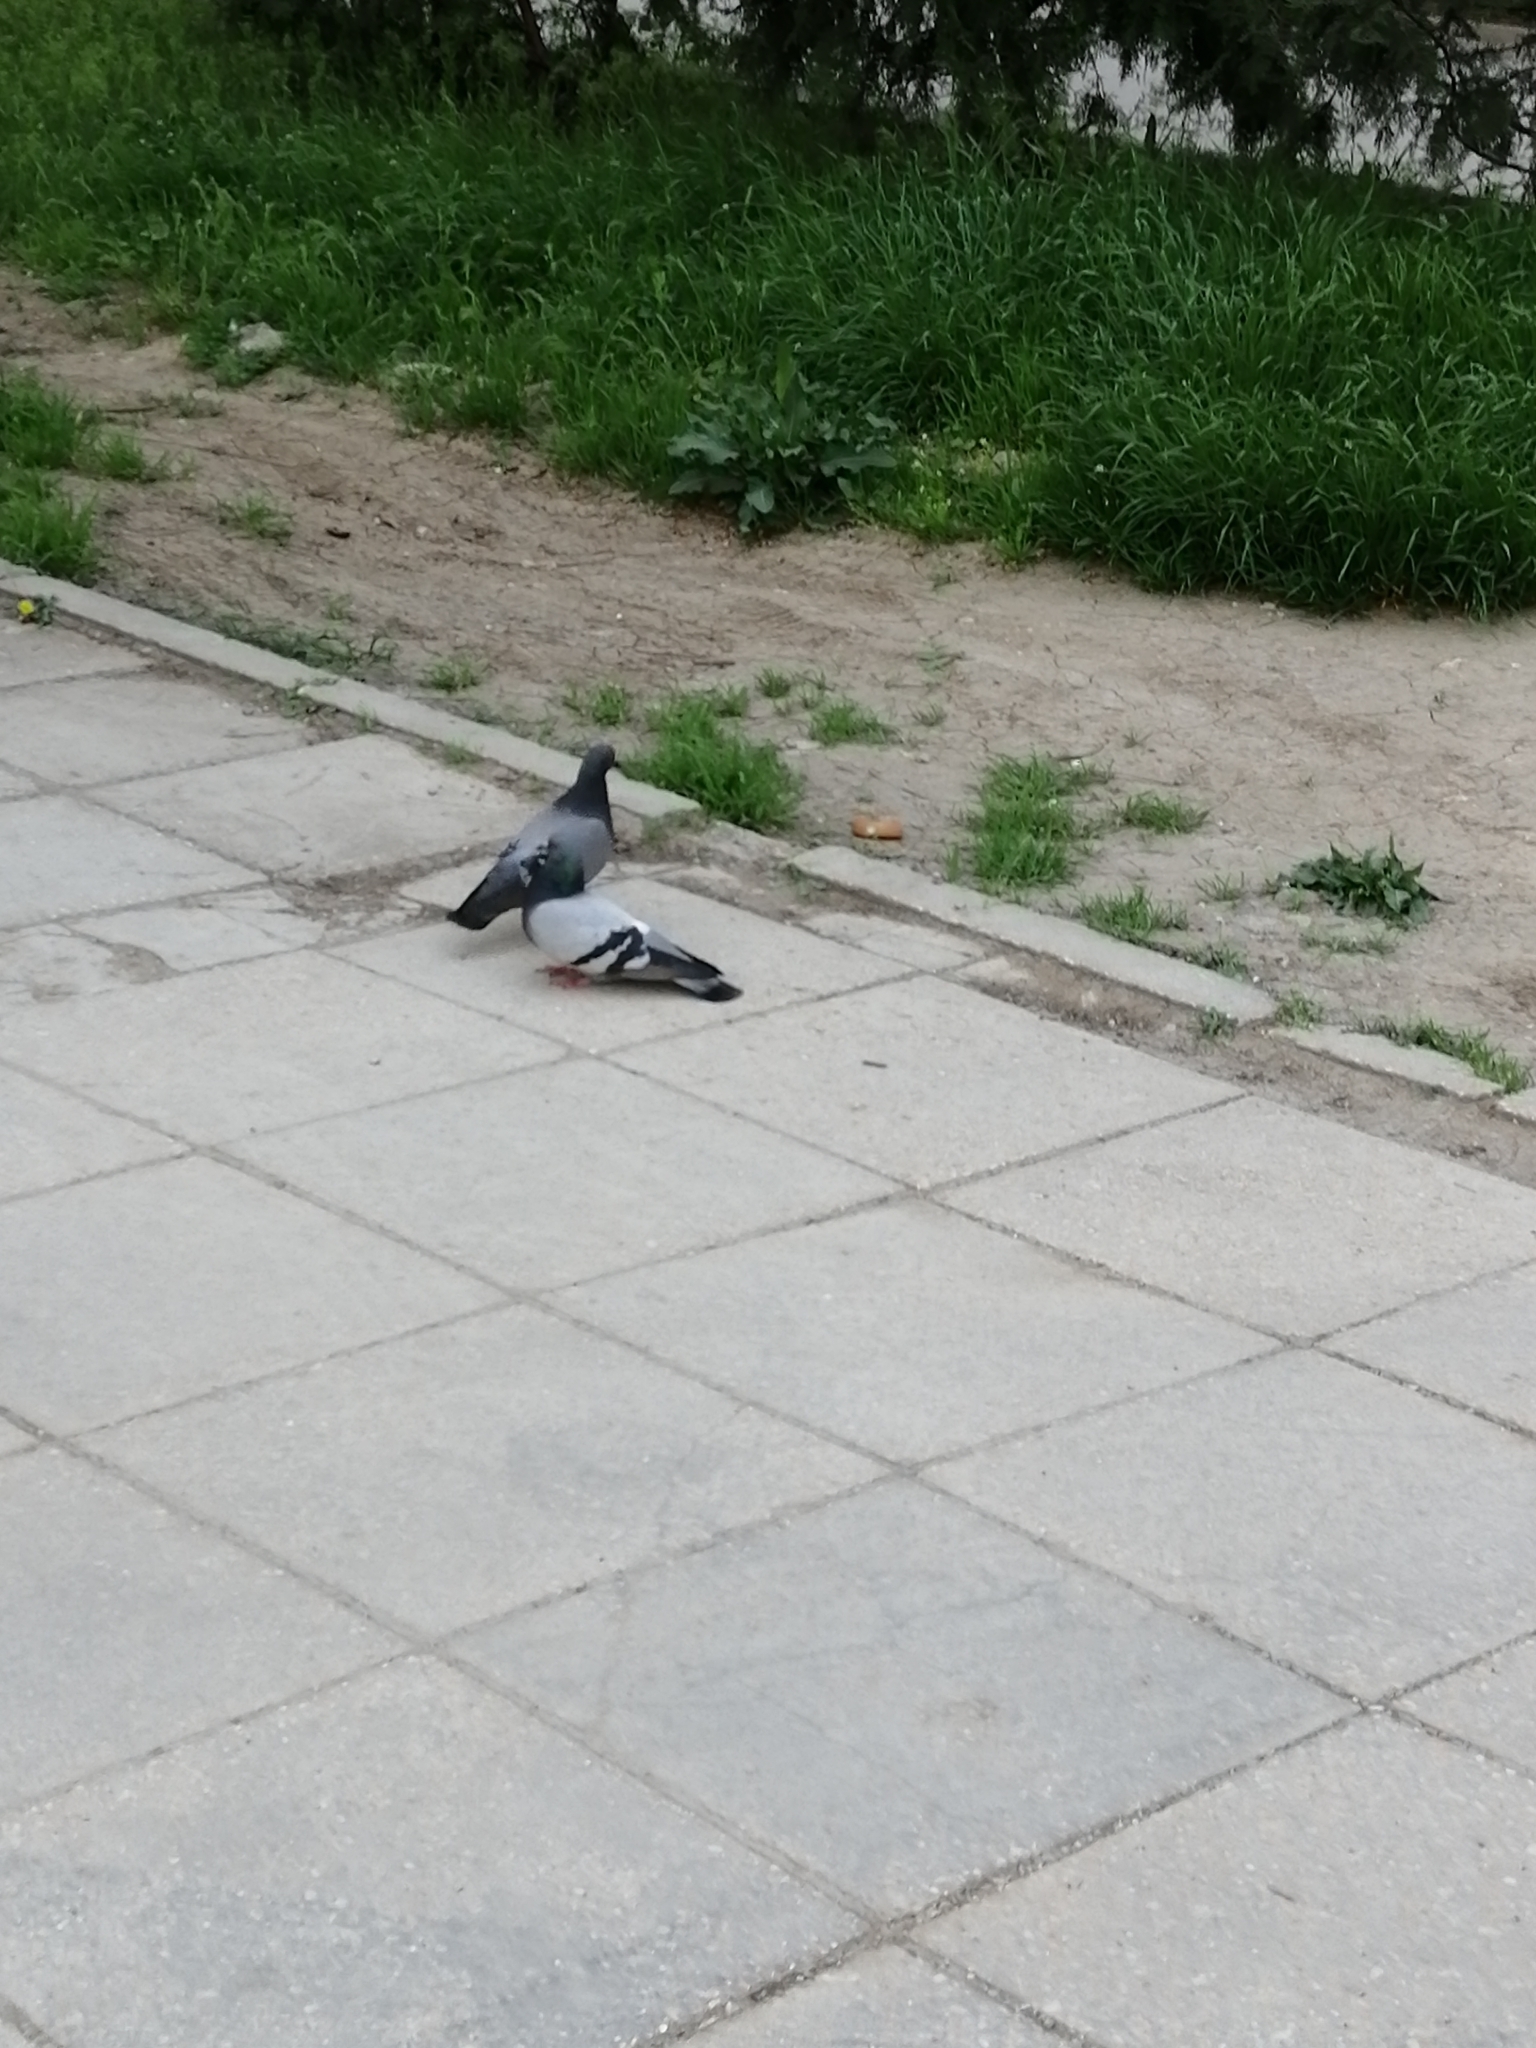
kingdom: Animalia
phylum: Chordata
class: Aves
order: Columbiformes
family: Columbidae
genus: Columba
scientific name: Columba livia
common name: Rock pigeon
